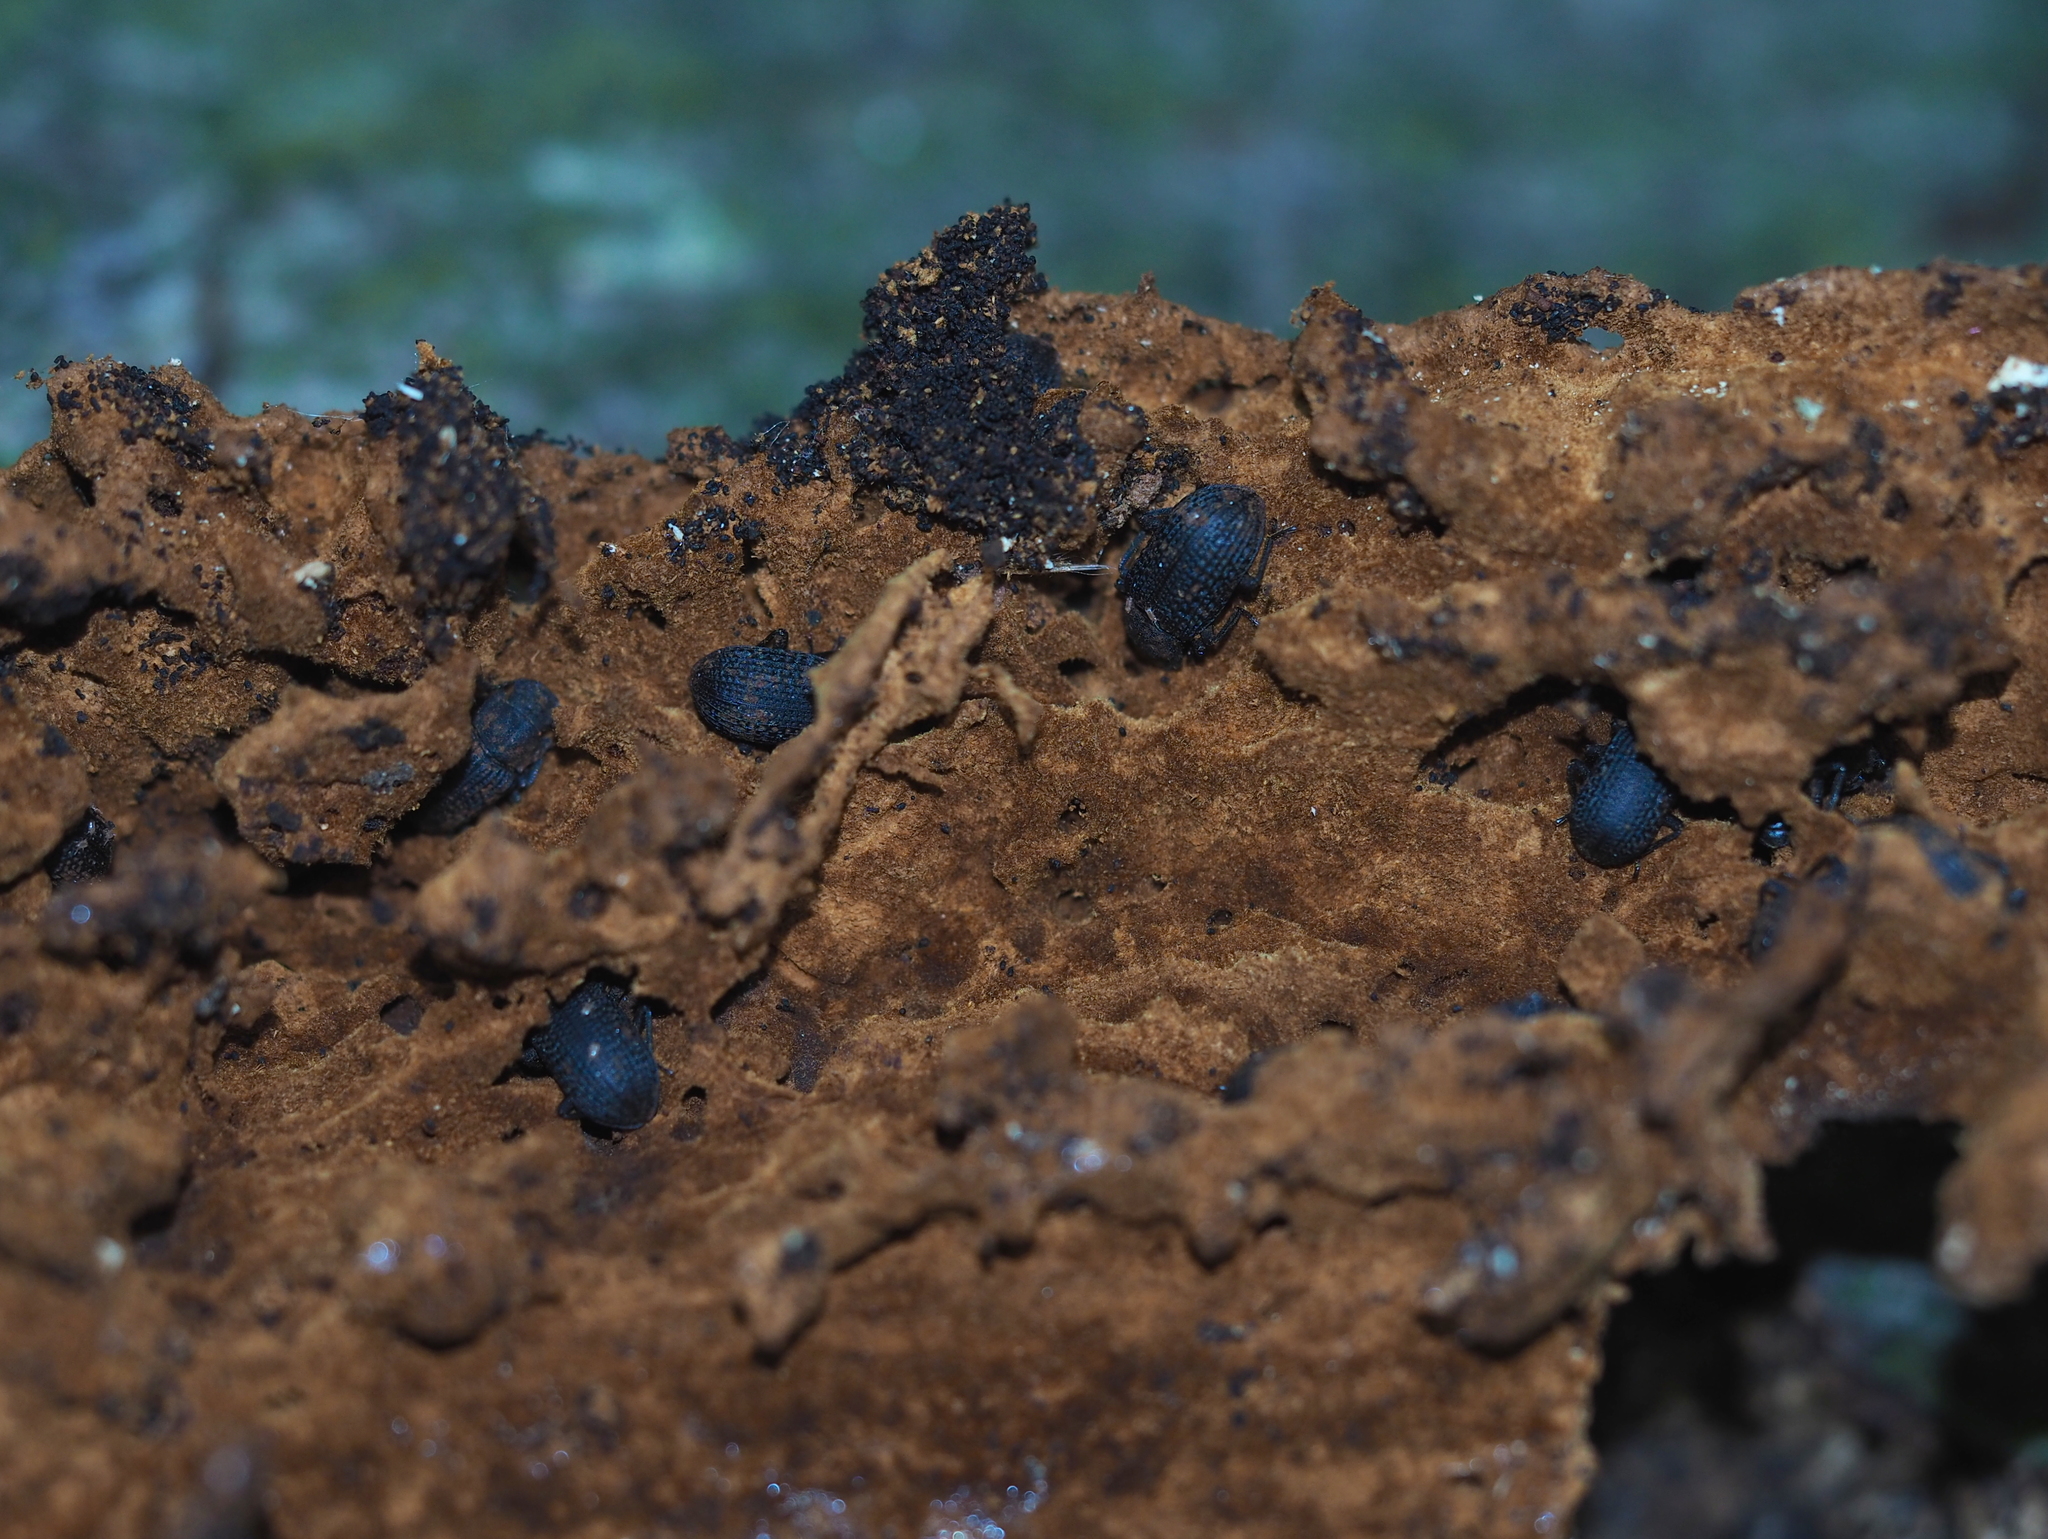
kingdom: Animalia
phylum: Arthropoda
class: Insecta
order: Coleoptera
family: Tenebrionidae
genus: Bolitophagus
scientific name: Bolitophagus reticulatus
